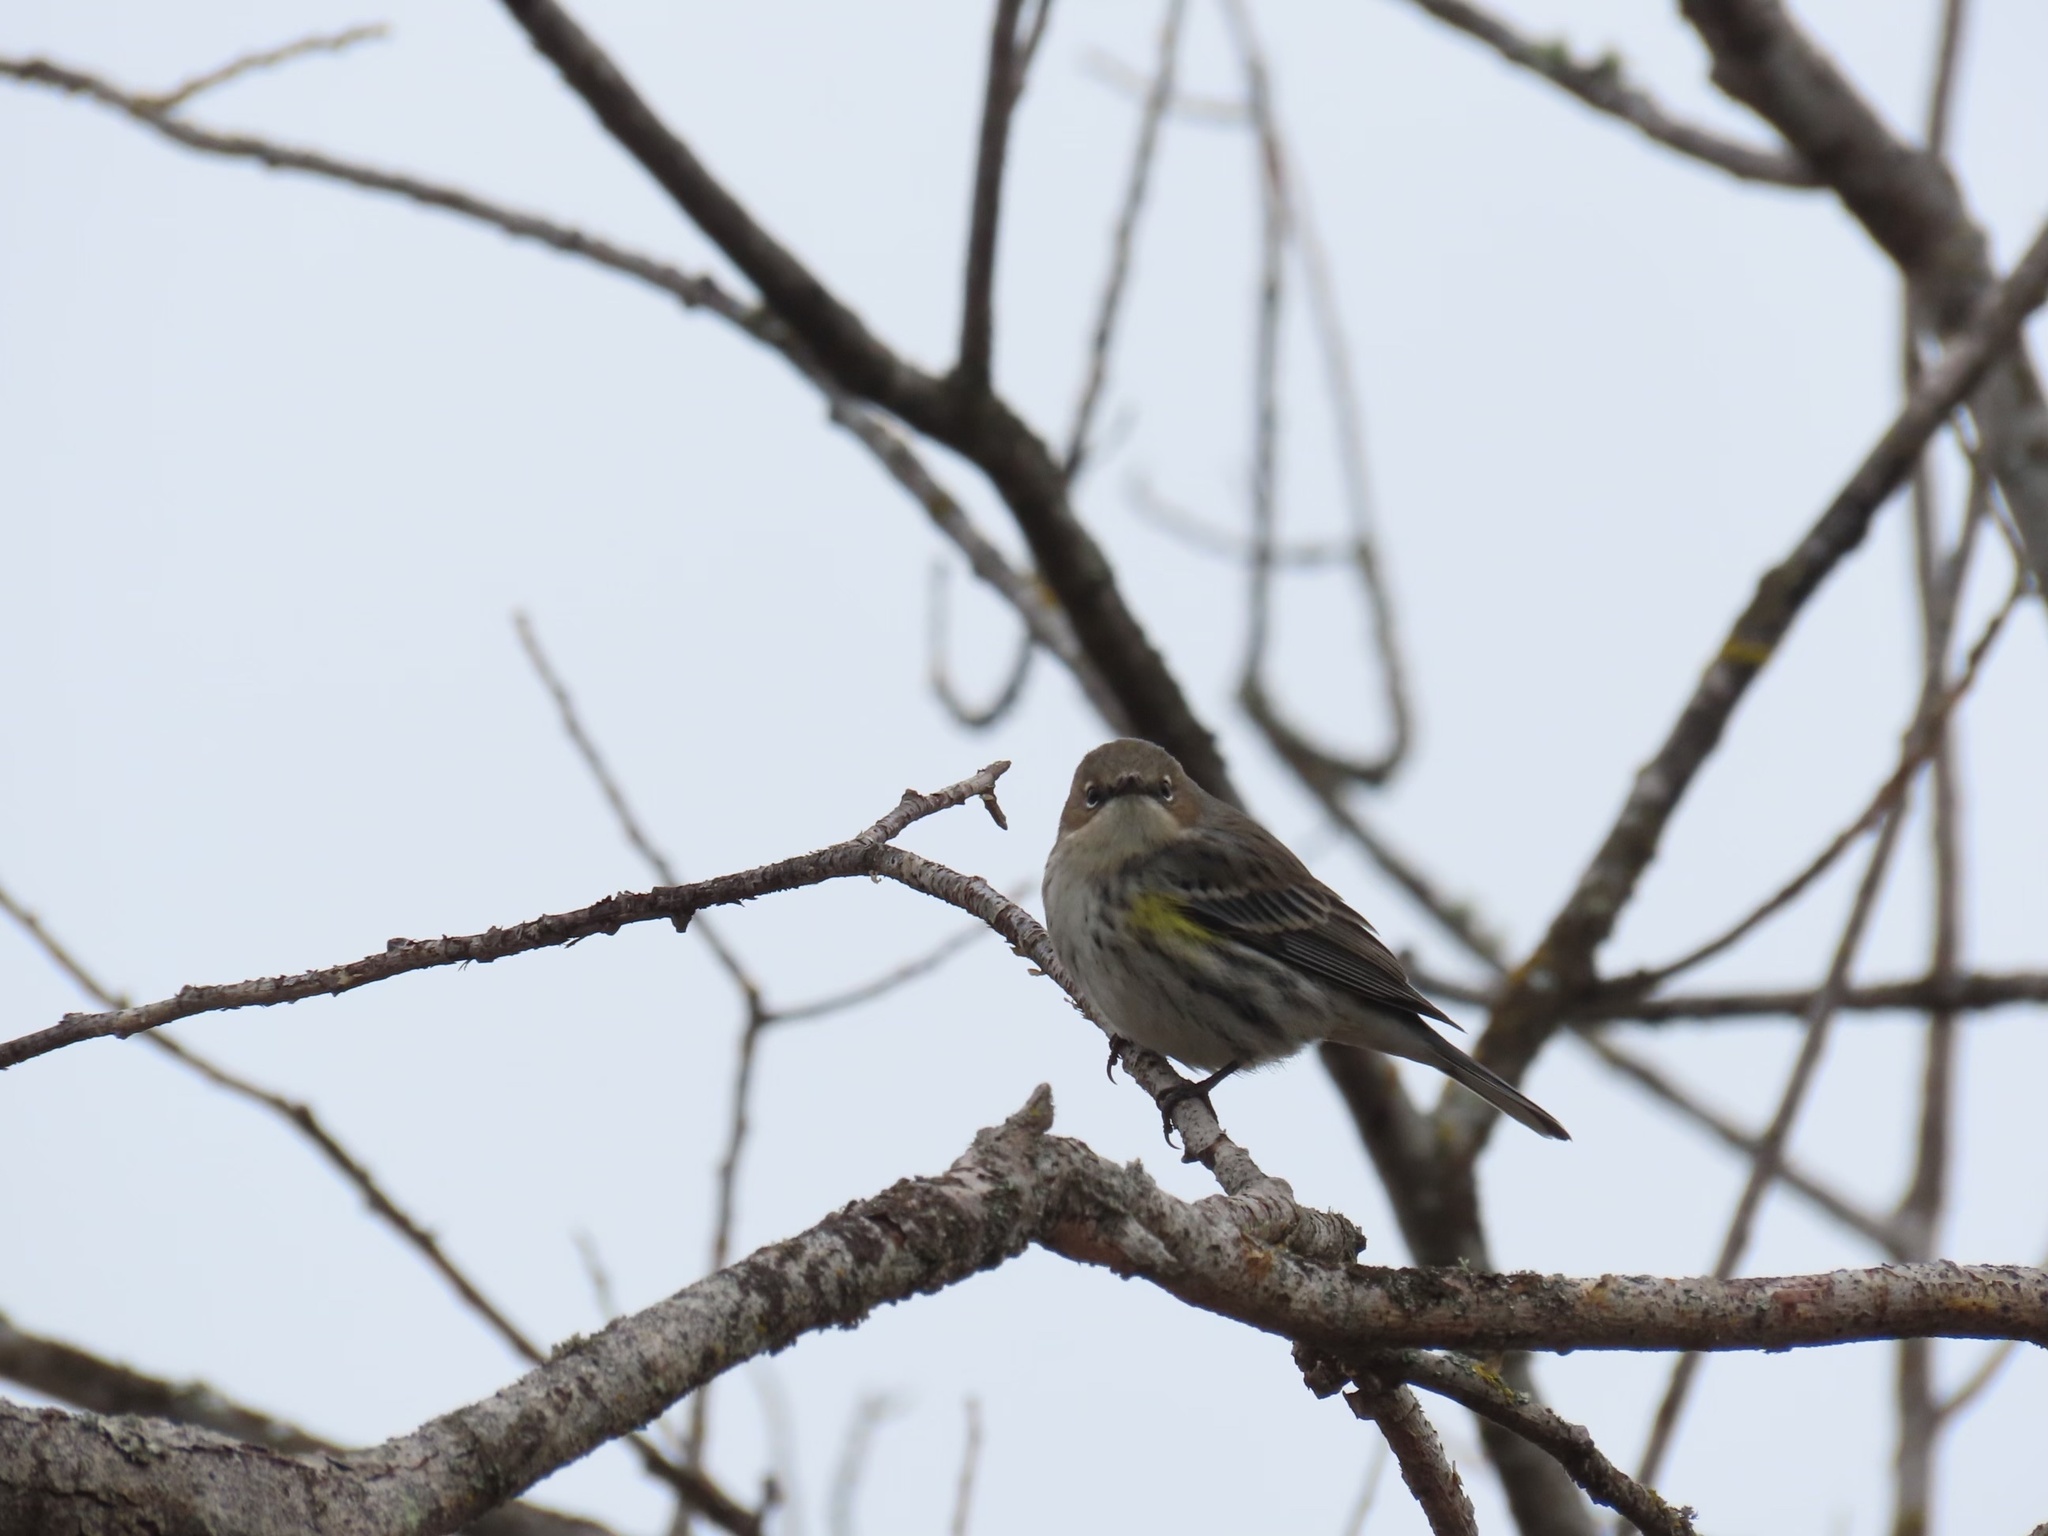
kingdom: Animalia
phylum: Chordata
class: Aves
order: Passeriformes
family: Parulidae
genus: Setophaga
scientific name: Setophaga coronata
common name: Myrtle warbler
